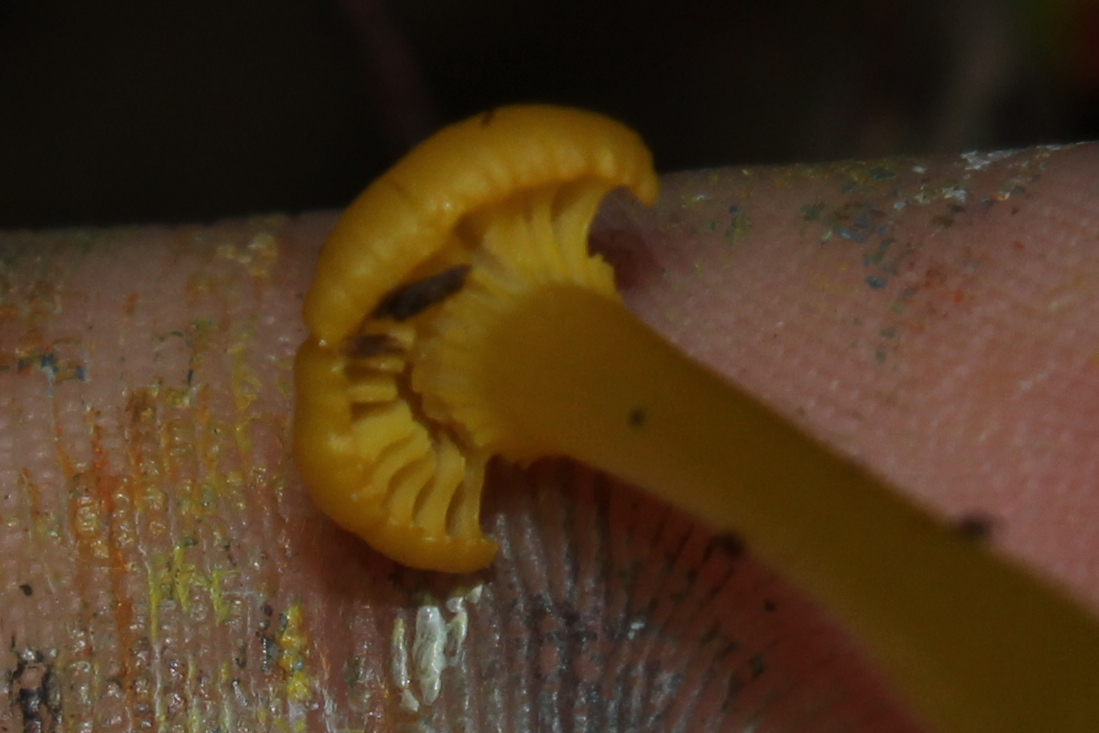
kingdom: Fungi
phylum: Basidiomycota
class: Agaricomycetes
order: Agaricales
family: Hygrophoraceae
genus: Gloioxanthomyces
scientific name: Gloioxanthomyces nitidus
